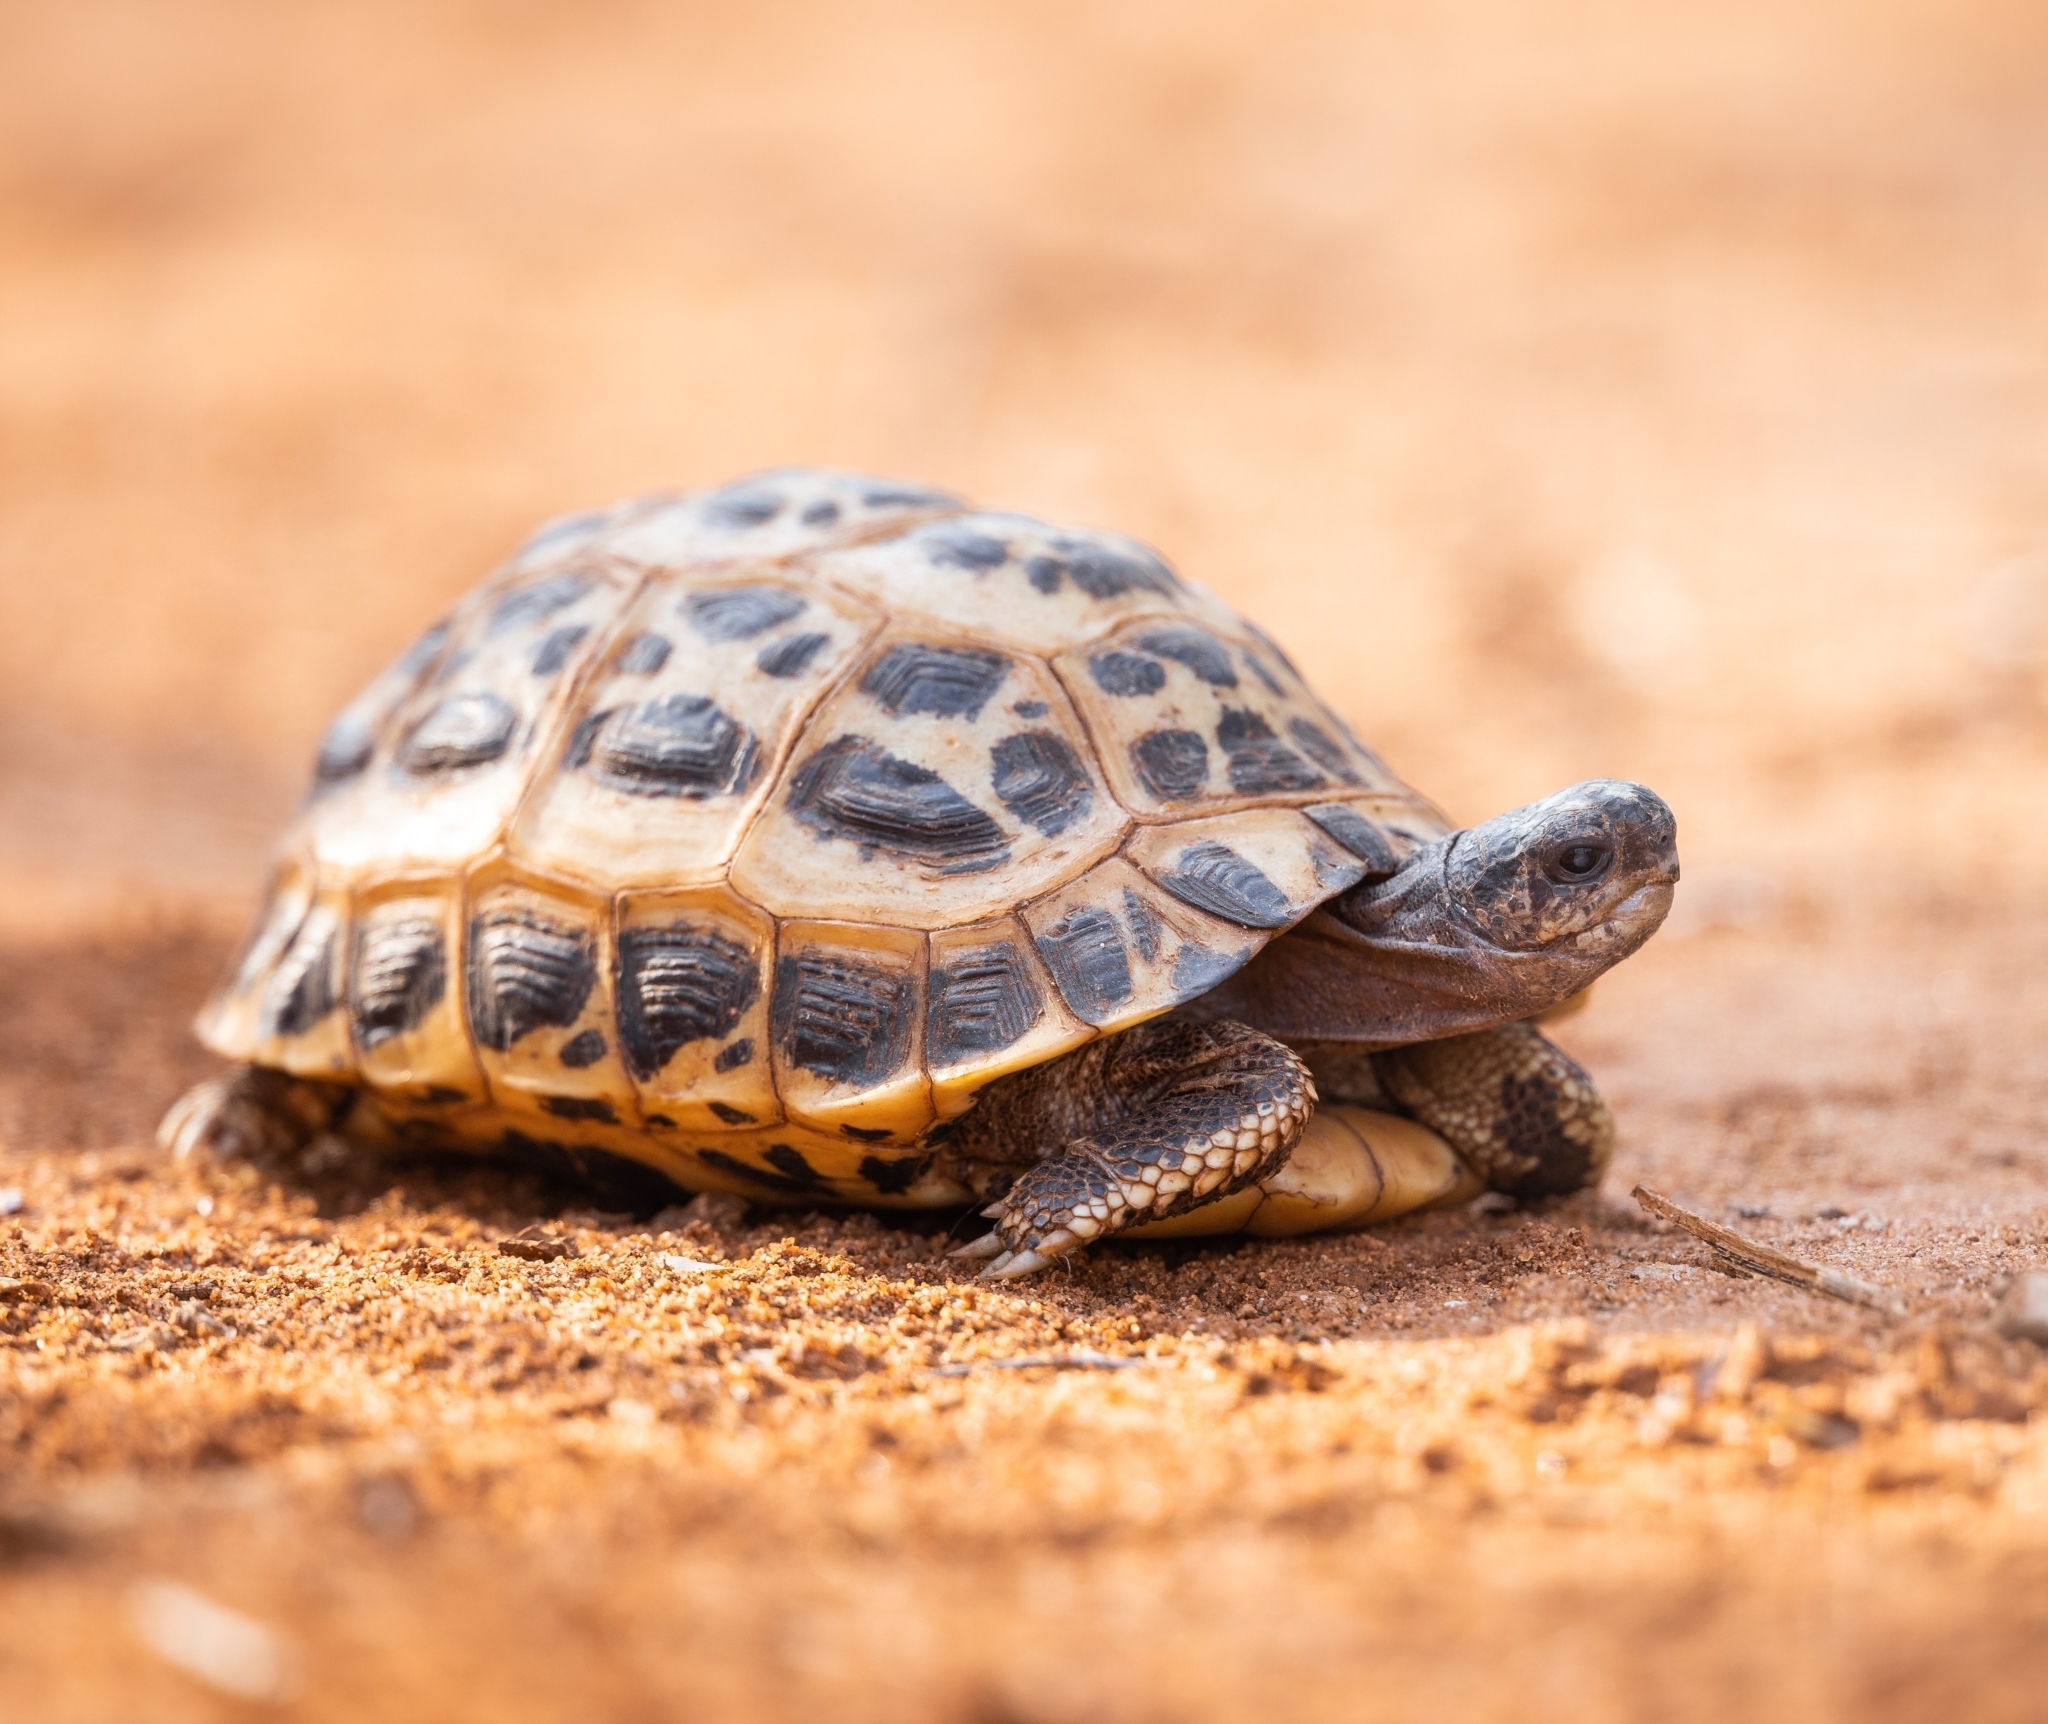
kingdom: Animalia
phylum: Chordata
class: Testudines
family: Testudinidae
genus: Pyxis
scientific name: Pyxis arachnoides
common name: Common spider tortoise
